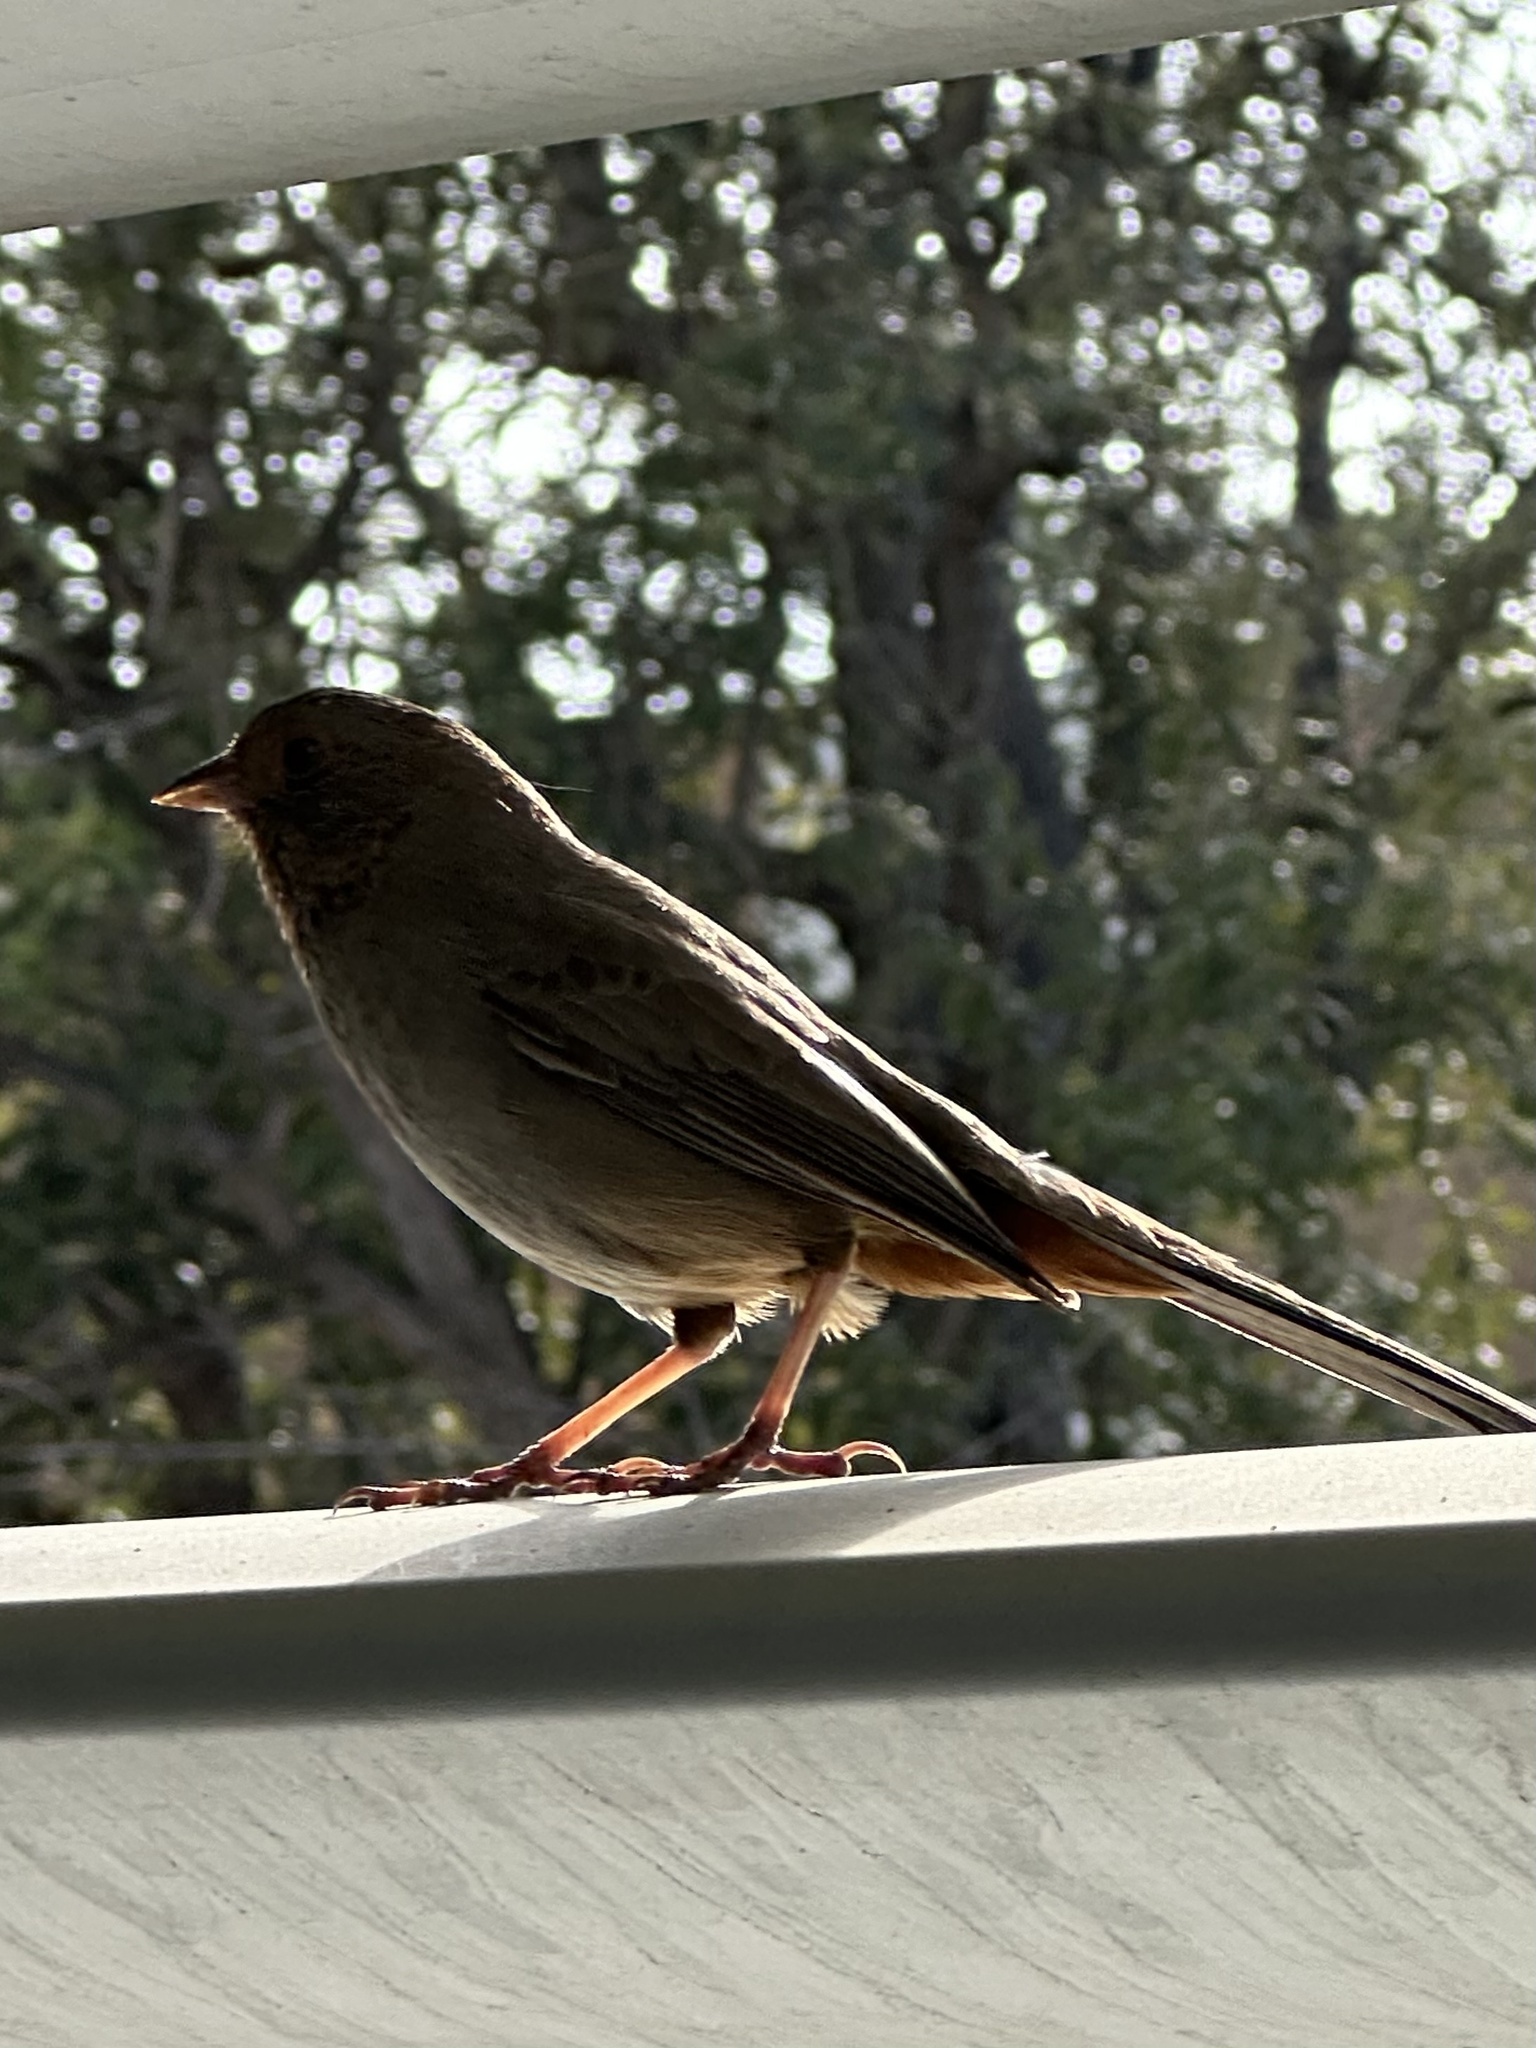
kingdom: Animalia
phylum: Chordata
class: Aves
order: Passeriformes
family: Passerellidae
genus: Melozone
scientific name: Melozone crissalis
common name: California towhee
